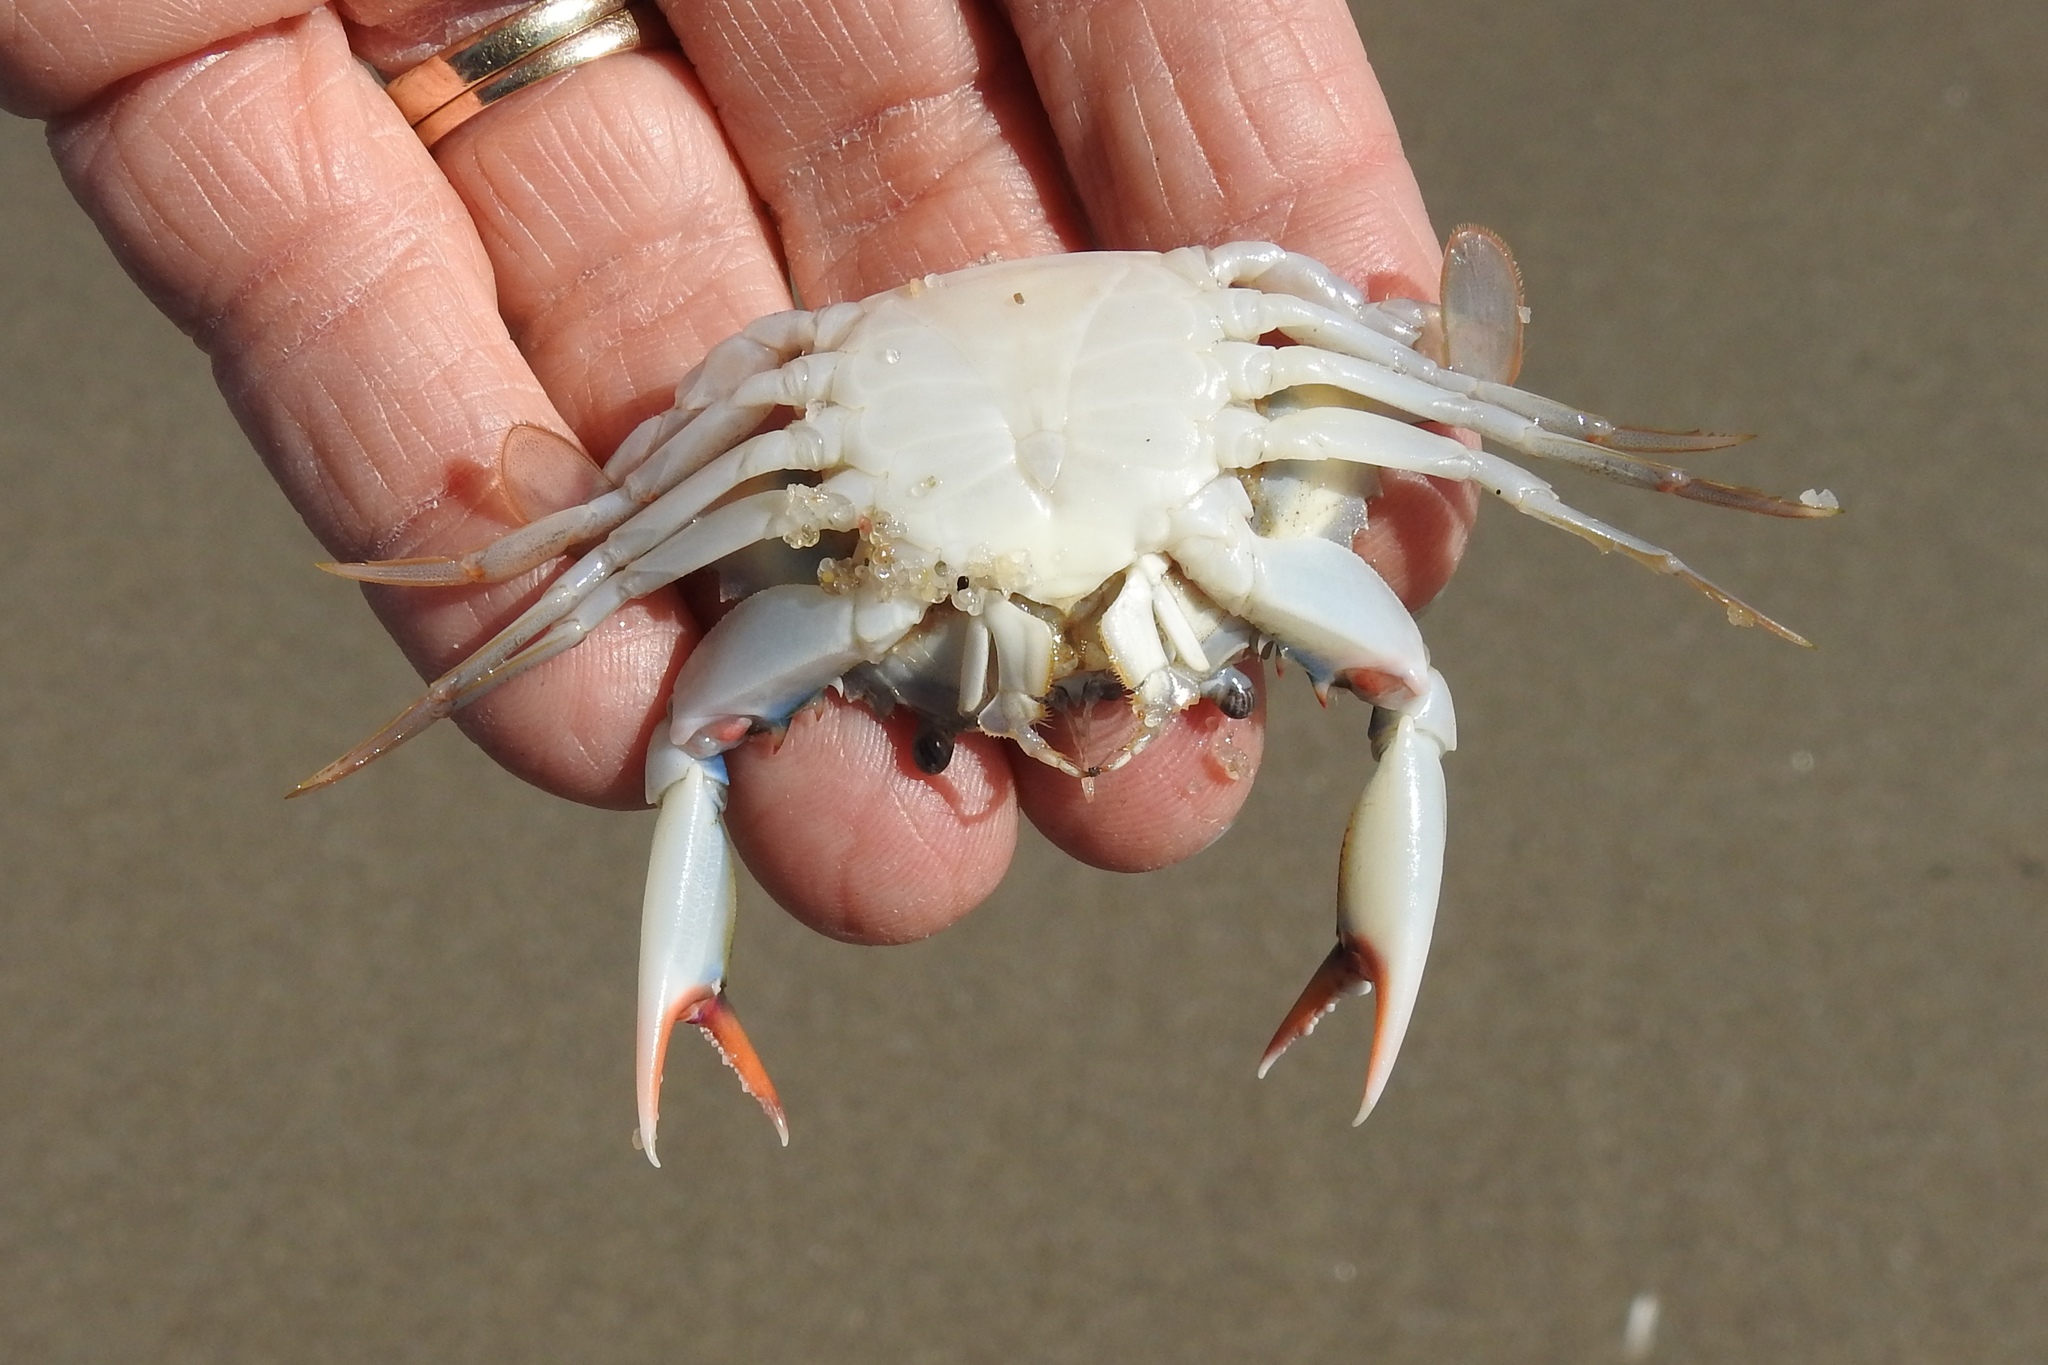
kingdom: Animalia
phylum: Arthropoda
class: Malacostraca
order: Decapoda
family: Portunidae
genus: Callinectes
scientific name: Callinectes sapidus
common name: Blue crab
